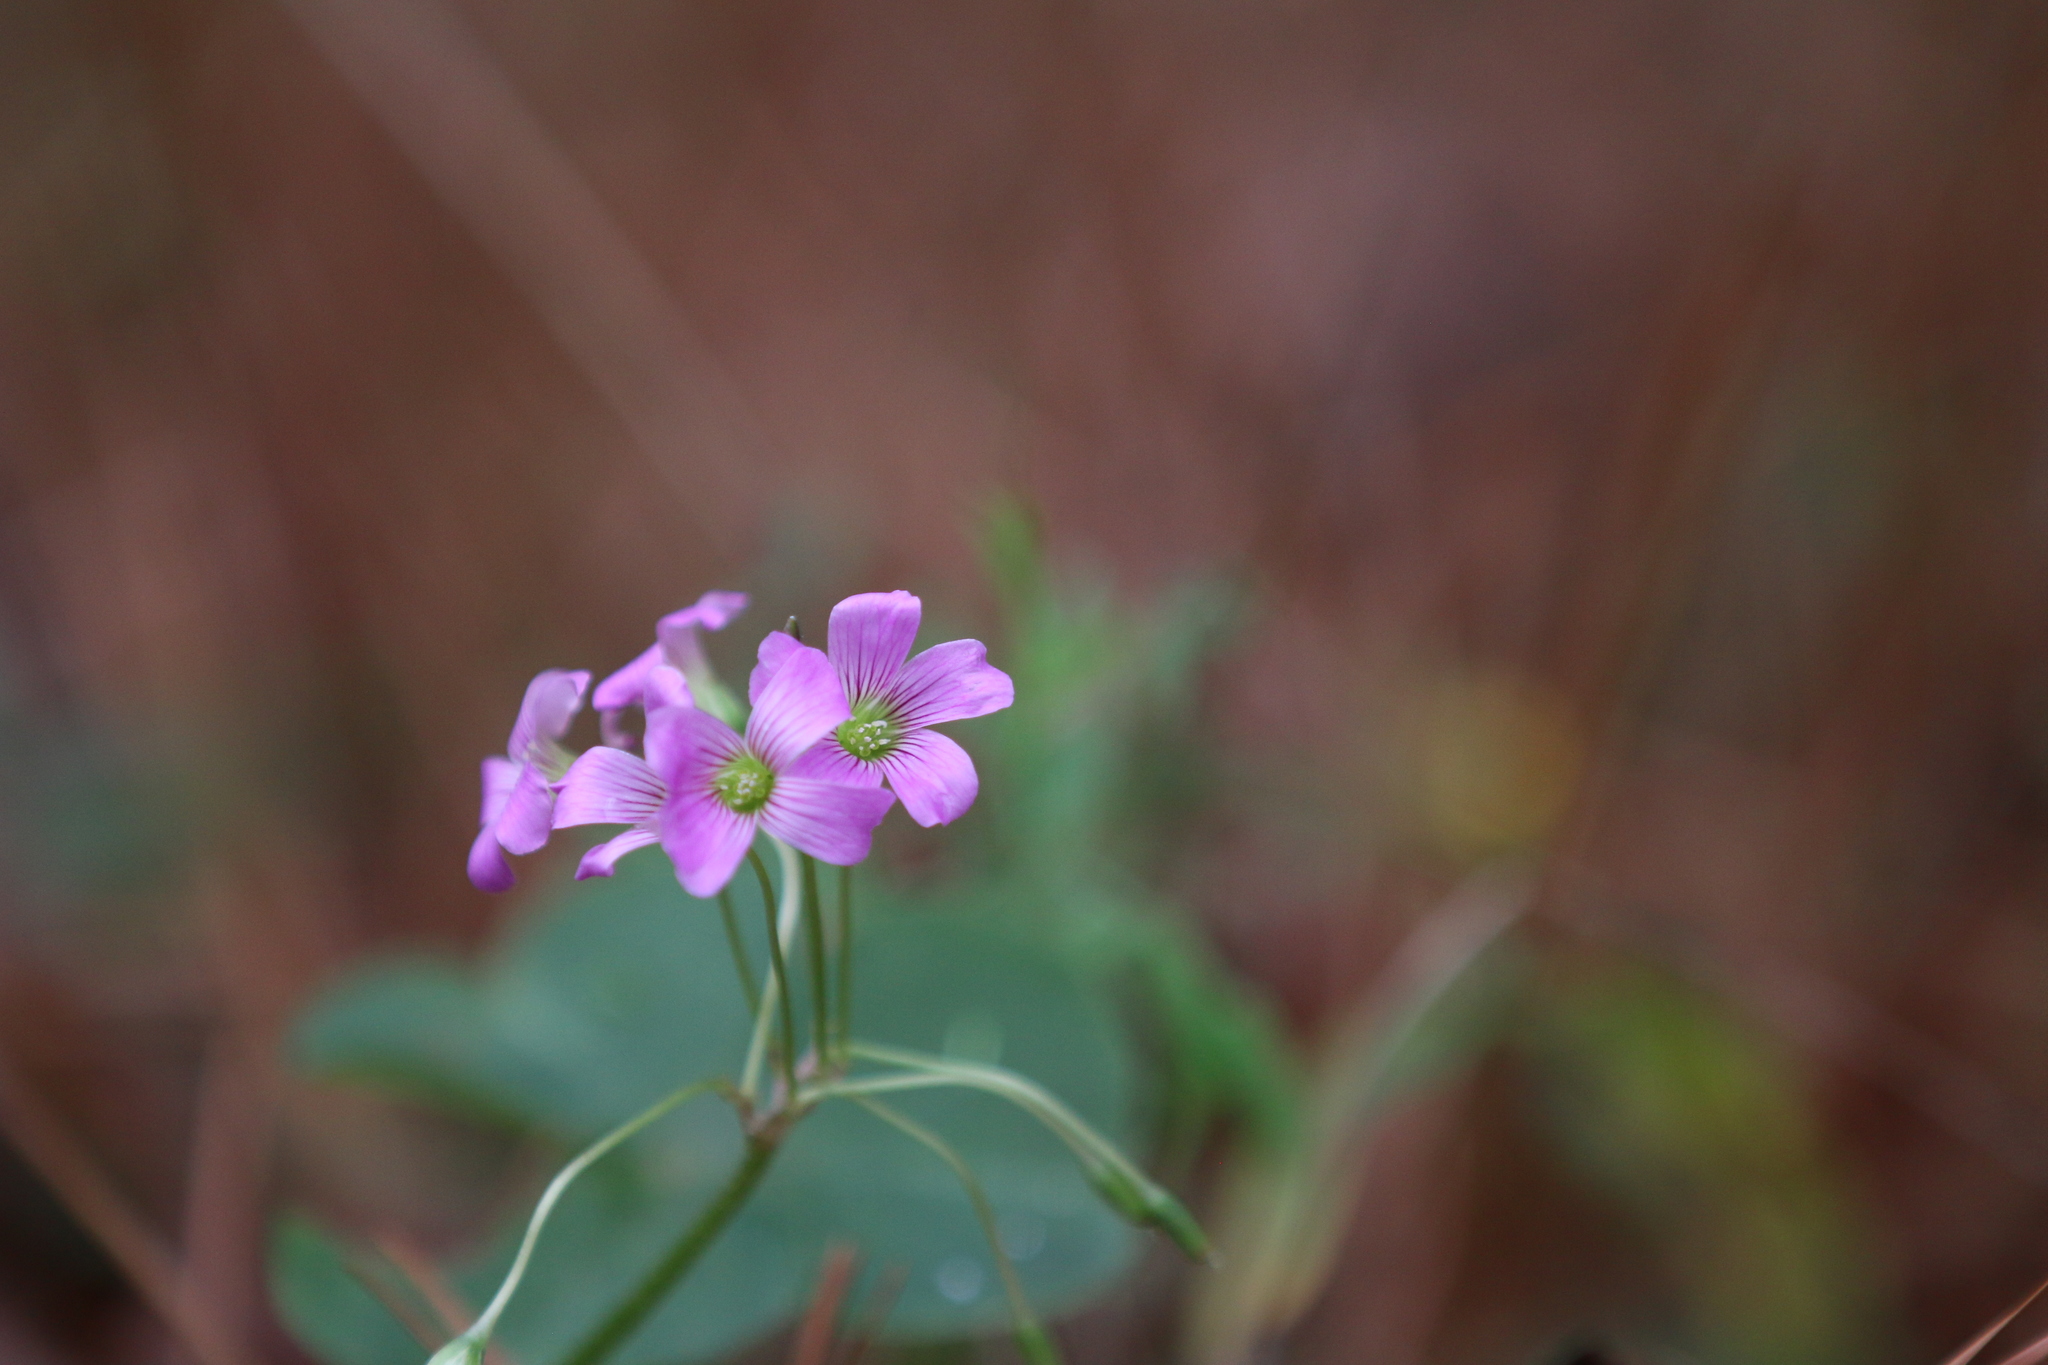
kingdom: Plantae
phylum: Tracheophyta
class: Magnoliopsida
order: Oxalidales
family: Oxalidaceae
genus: Oxalis
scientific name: Oxalis debilis
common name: Large-flowered pink-sorrel
